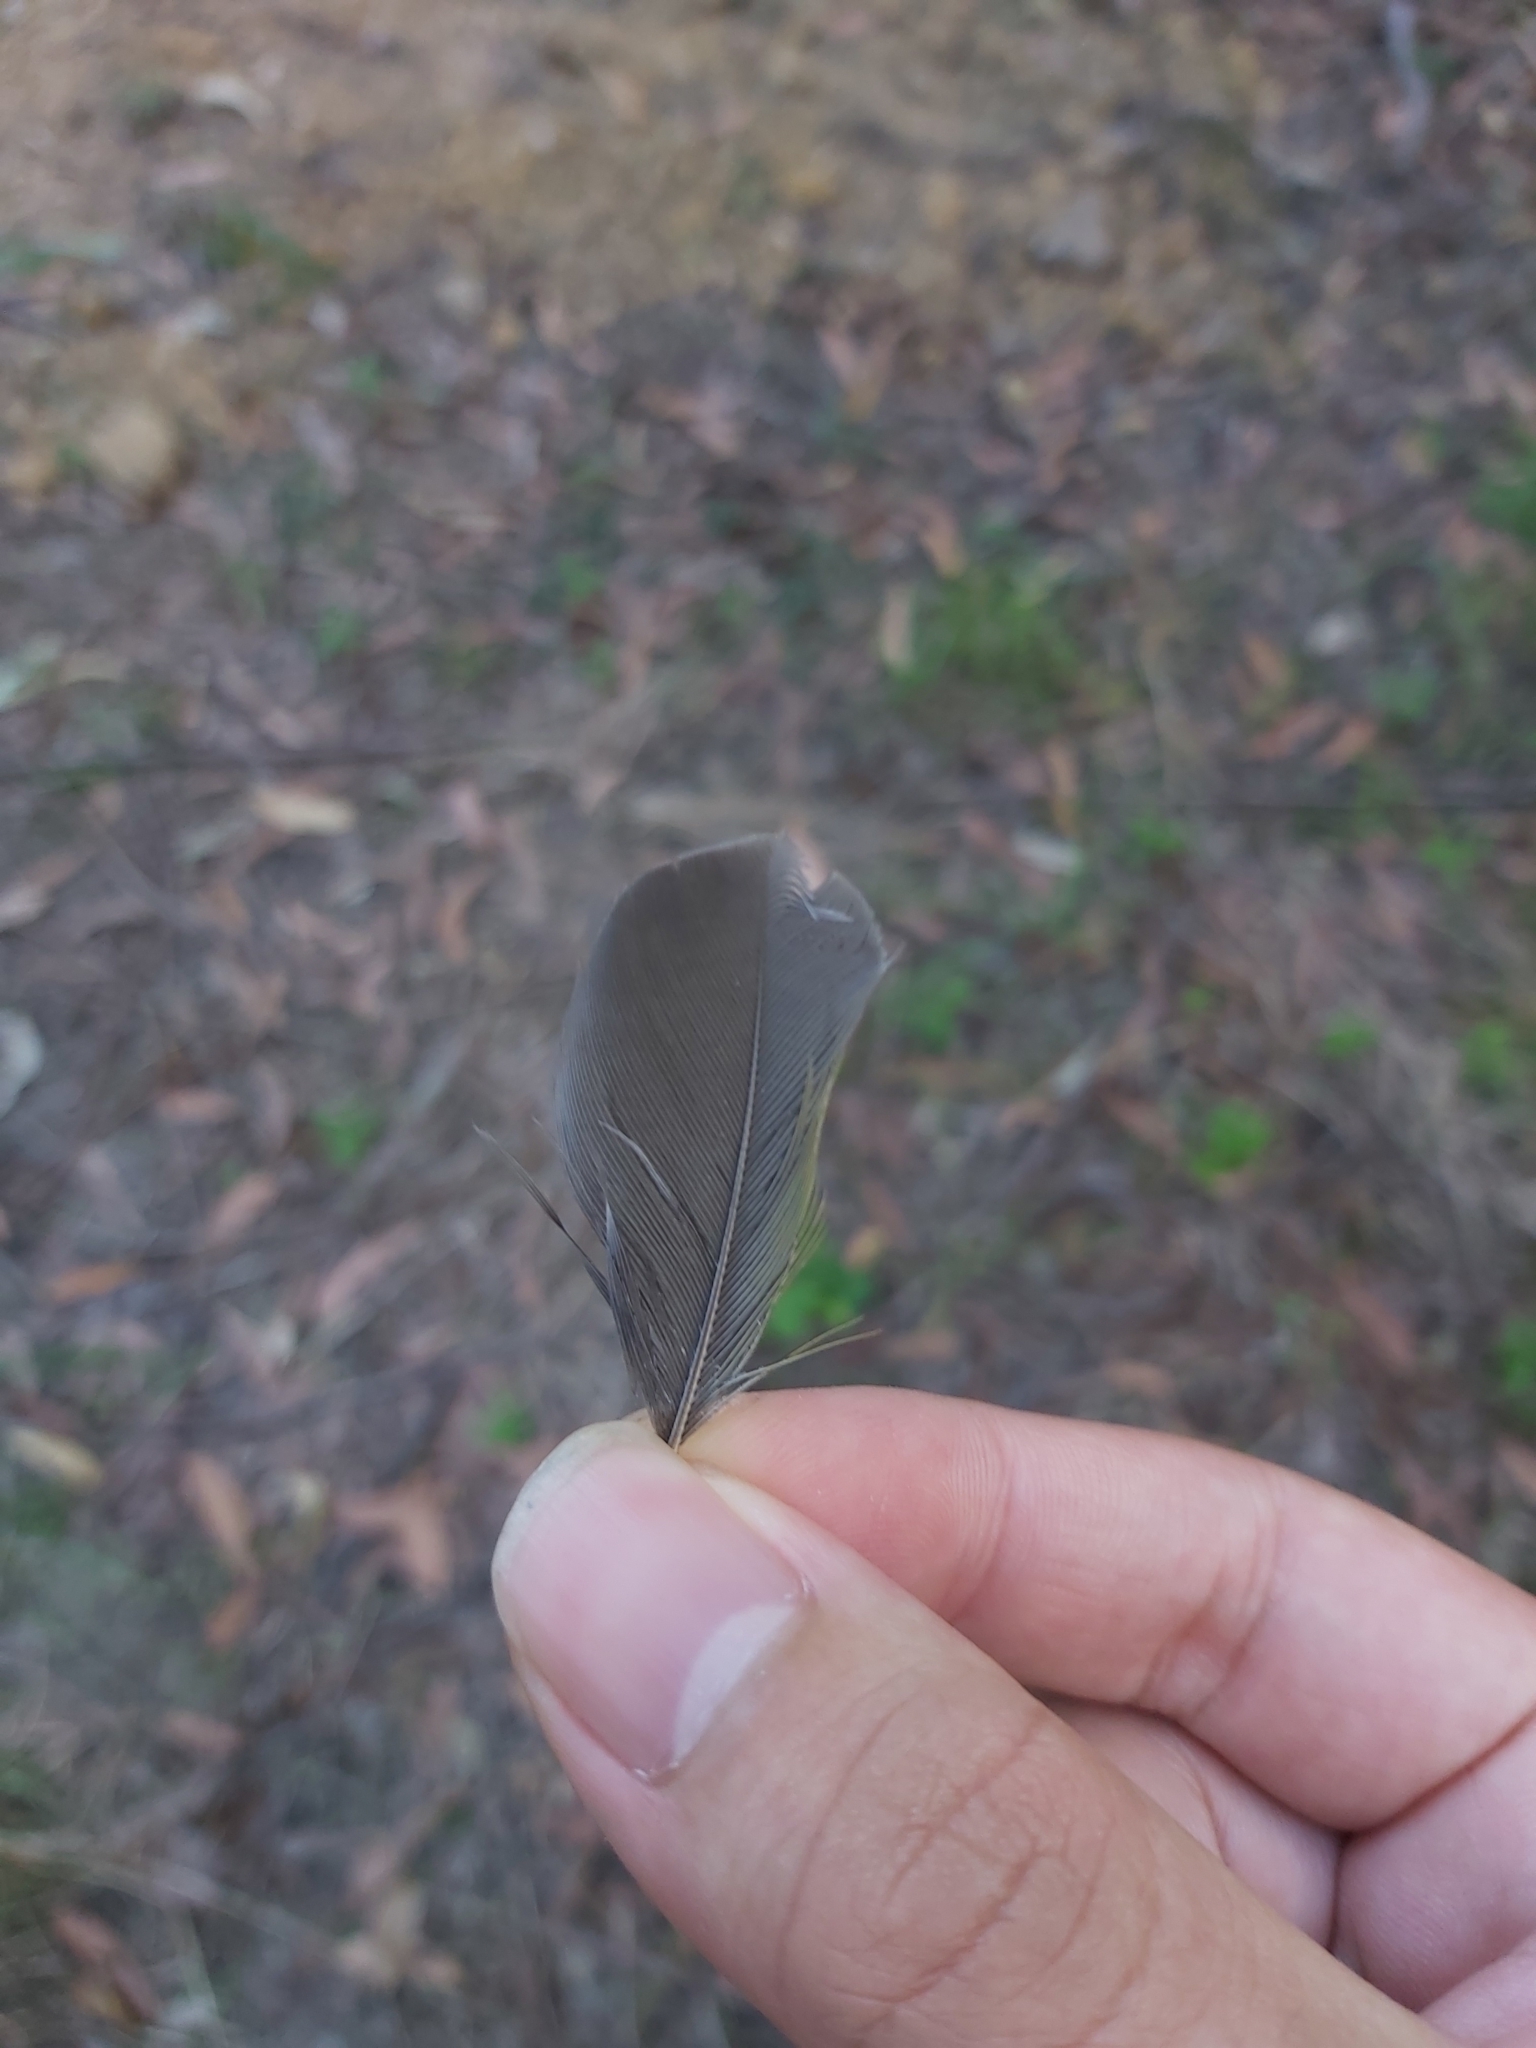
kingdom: Animalia
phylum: Chordata
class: Aves
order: Passeriformes
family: Meliphagidae
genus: Manorina
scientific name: Manorina melanocephala
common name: Noisy miner
